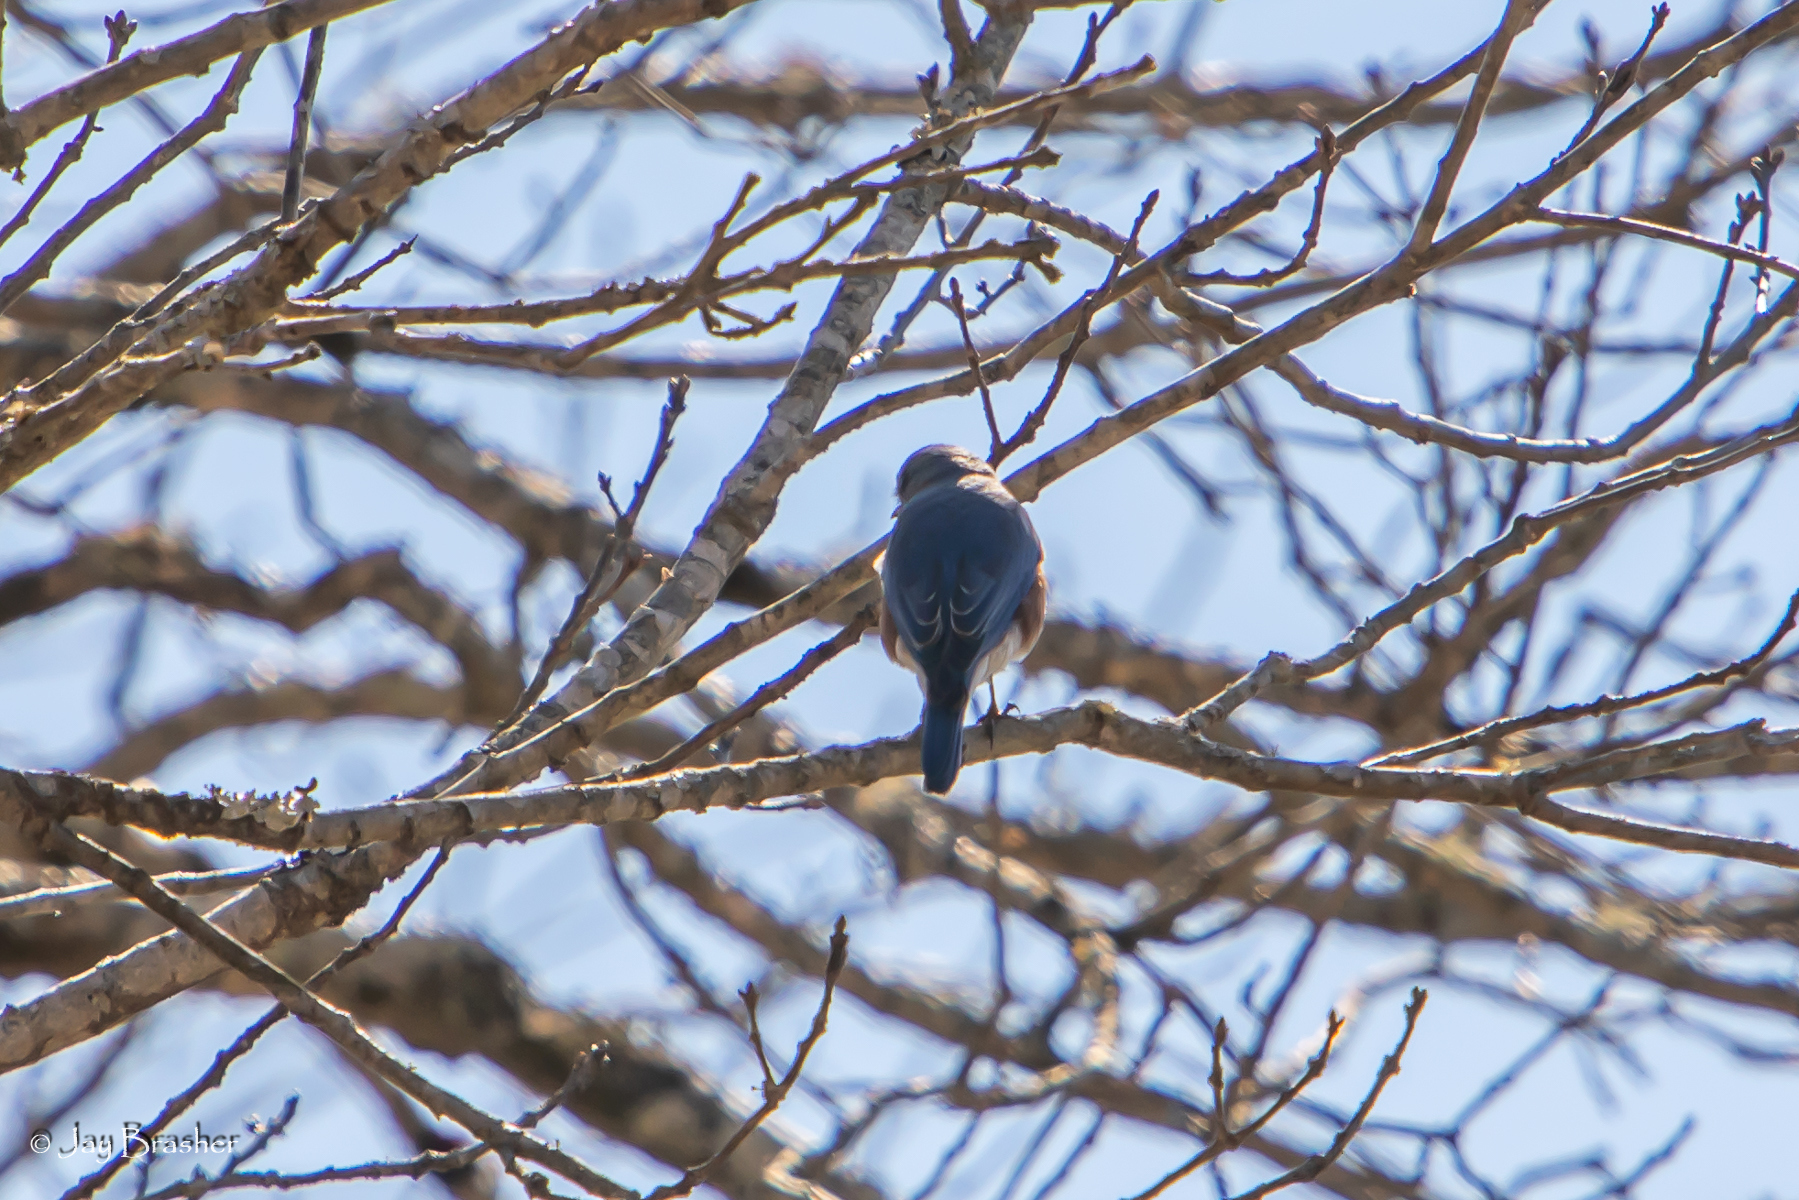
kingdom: Animalia
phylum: Chordata
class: Aves
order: Passeriformes
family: Turdidae
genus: Sialia
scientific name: Sialia sialis
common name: Eastern bluebird
